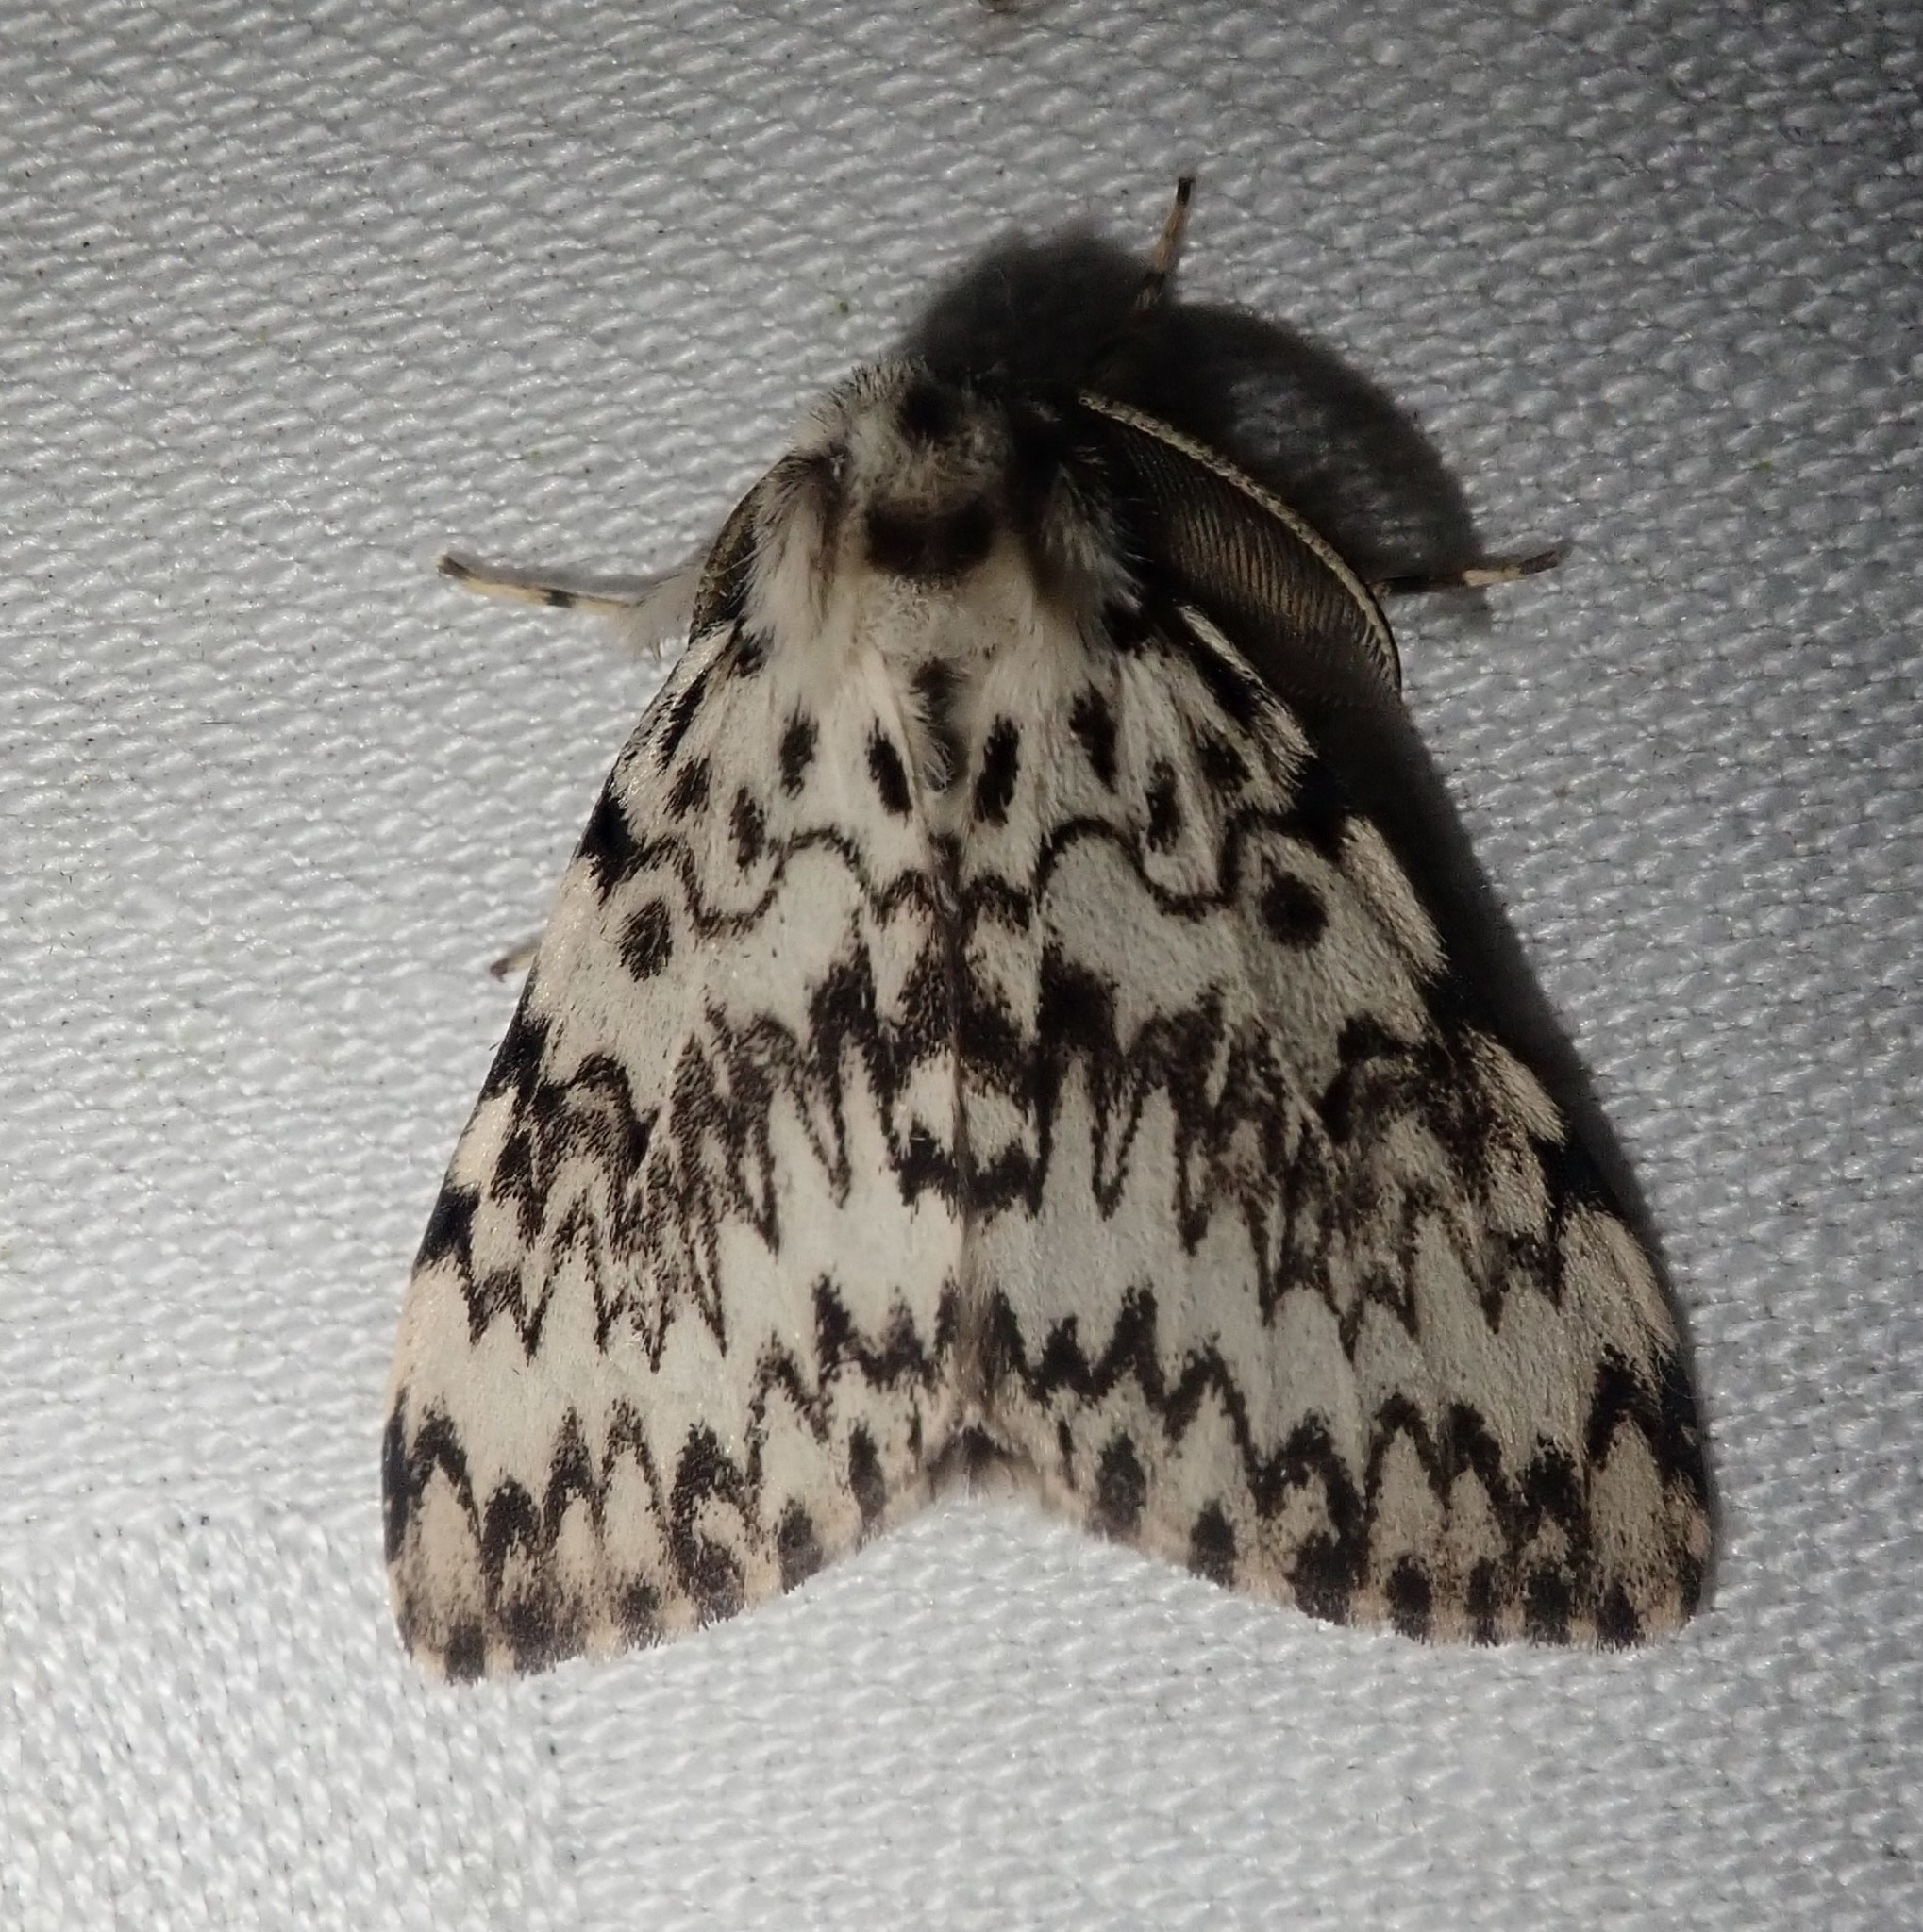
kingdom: Animalia
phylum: Arthropoda
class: Insecta
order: Lepidoptera
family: Erebidae
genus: Lymantria
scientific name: Lymantria monacha
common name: Black arches
